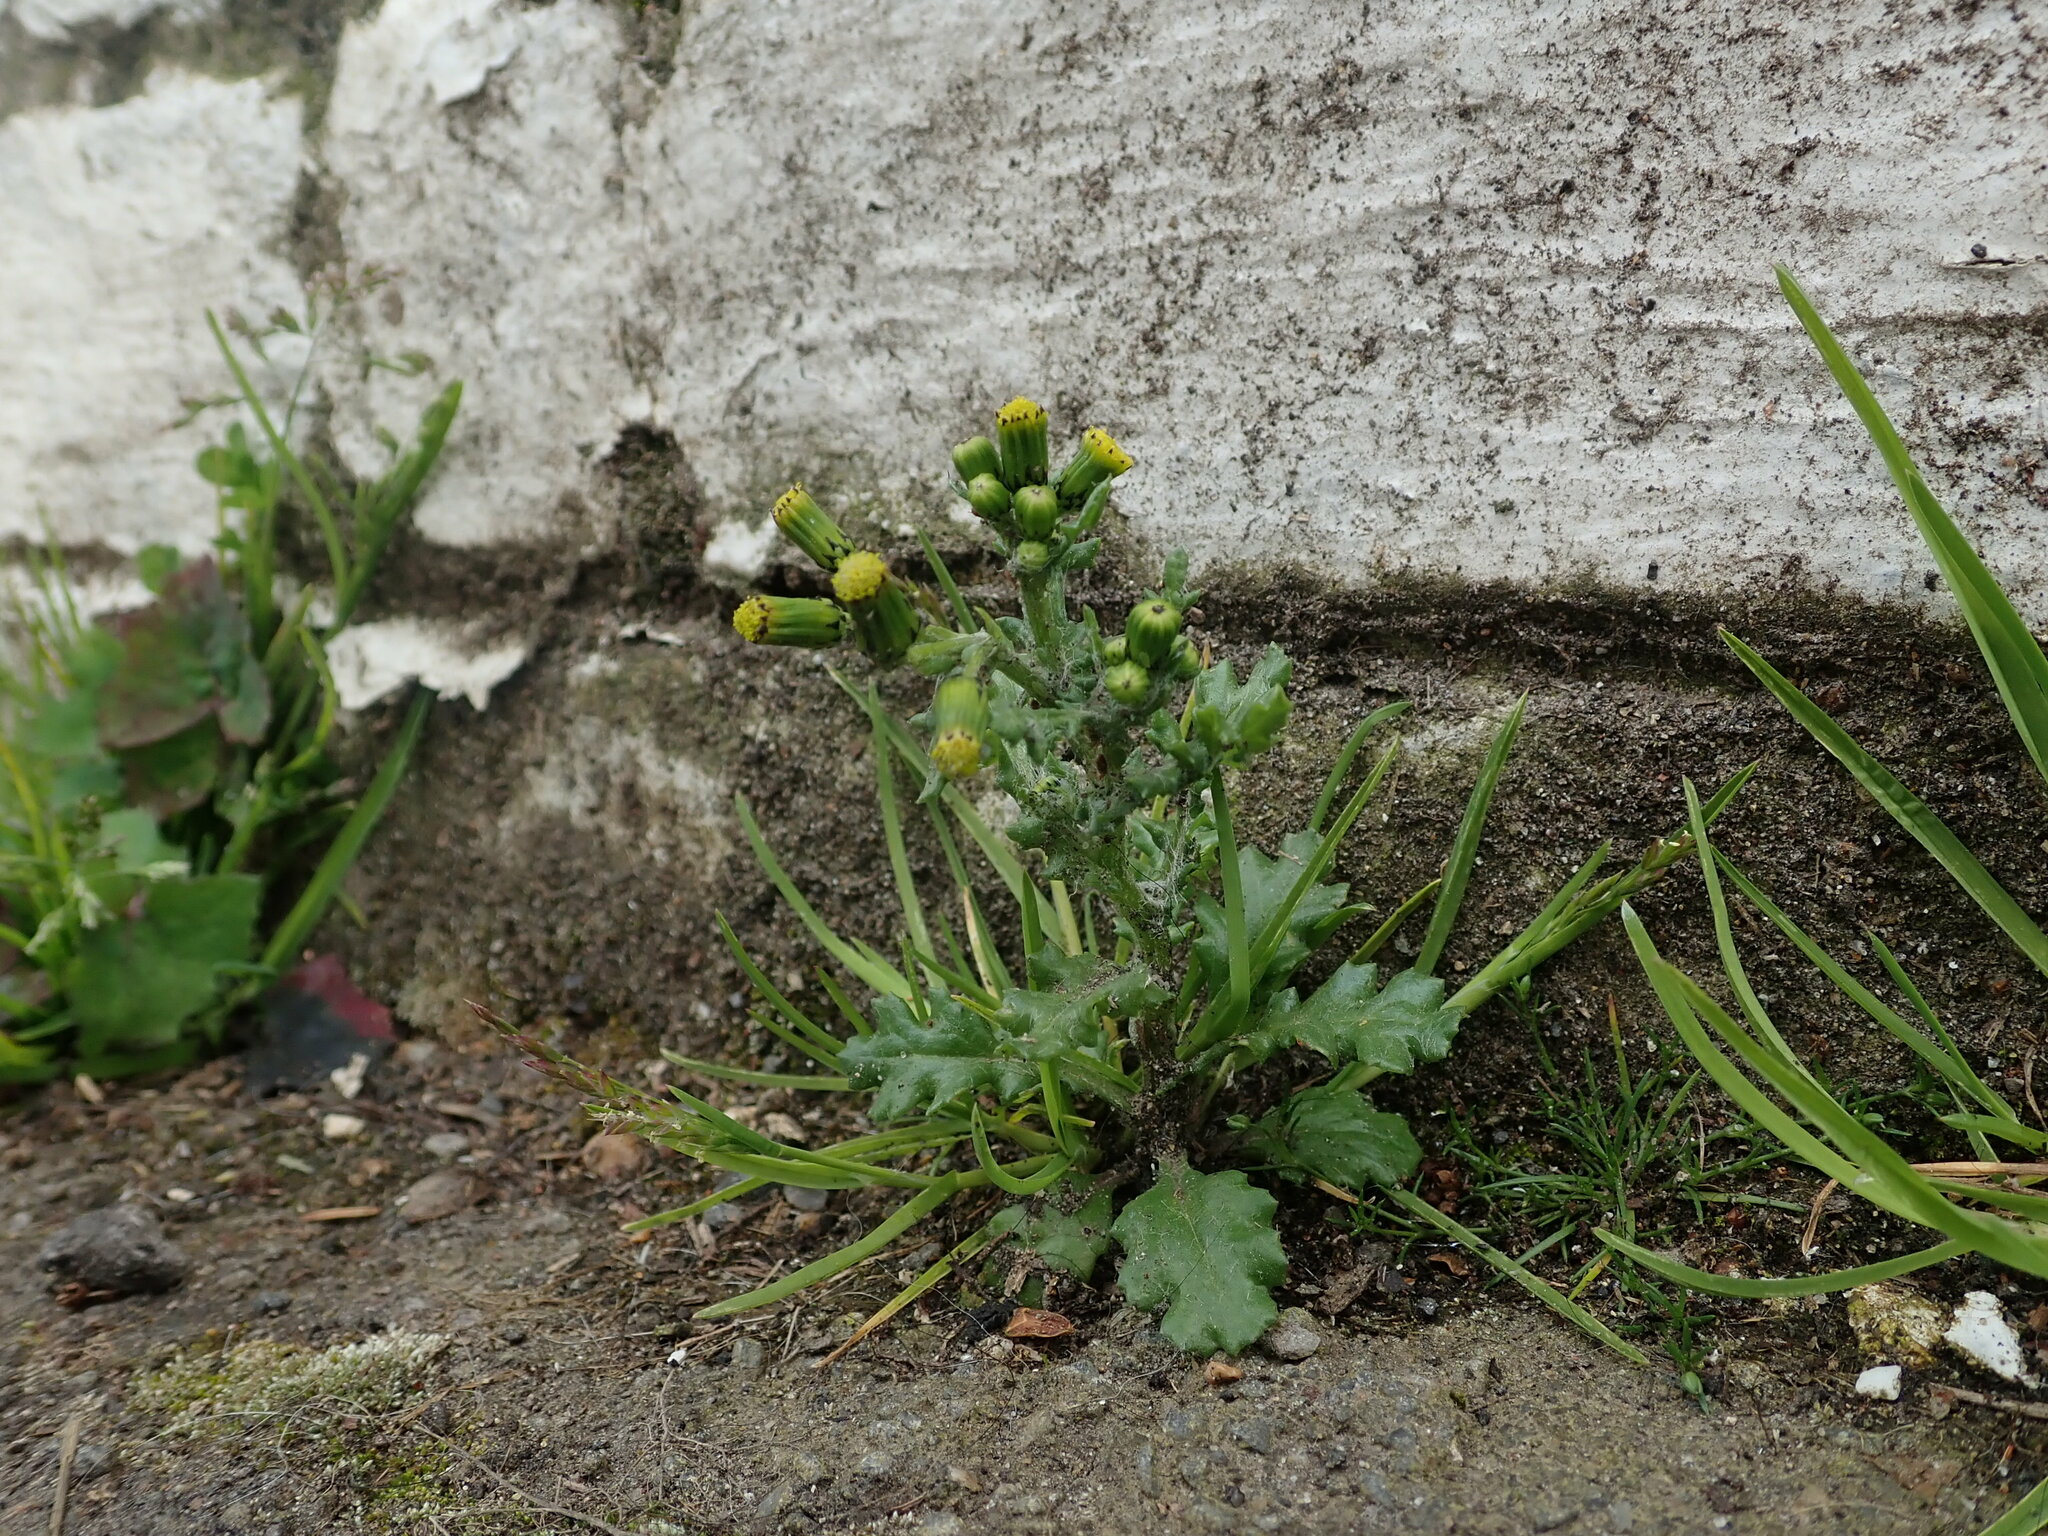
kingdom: Plantae
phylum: Tracheophyta
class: Magnoliopsida
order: Asterales
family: Asteraceae
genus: Senecio
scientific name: Senecio vulgaris
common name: Old-man-in-the-spring
